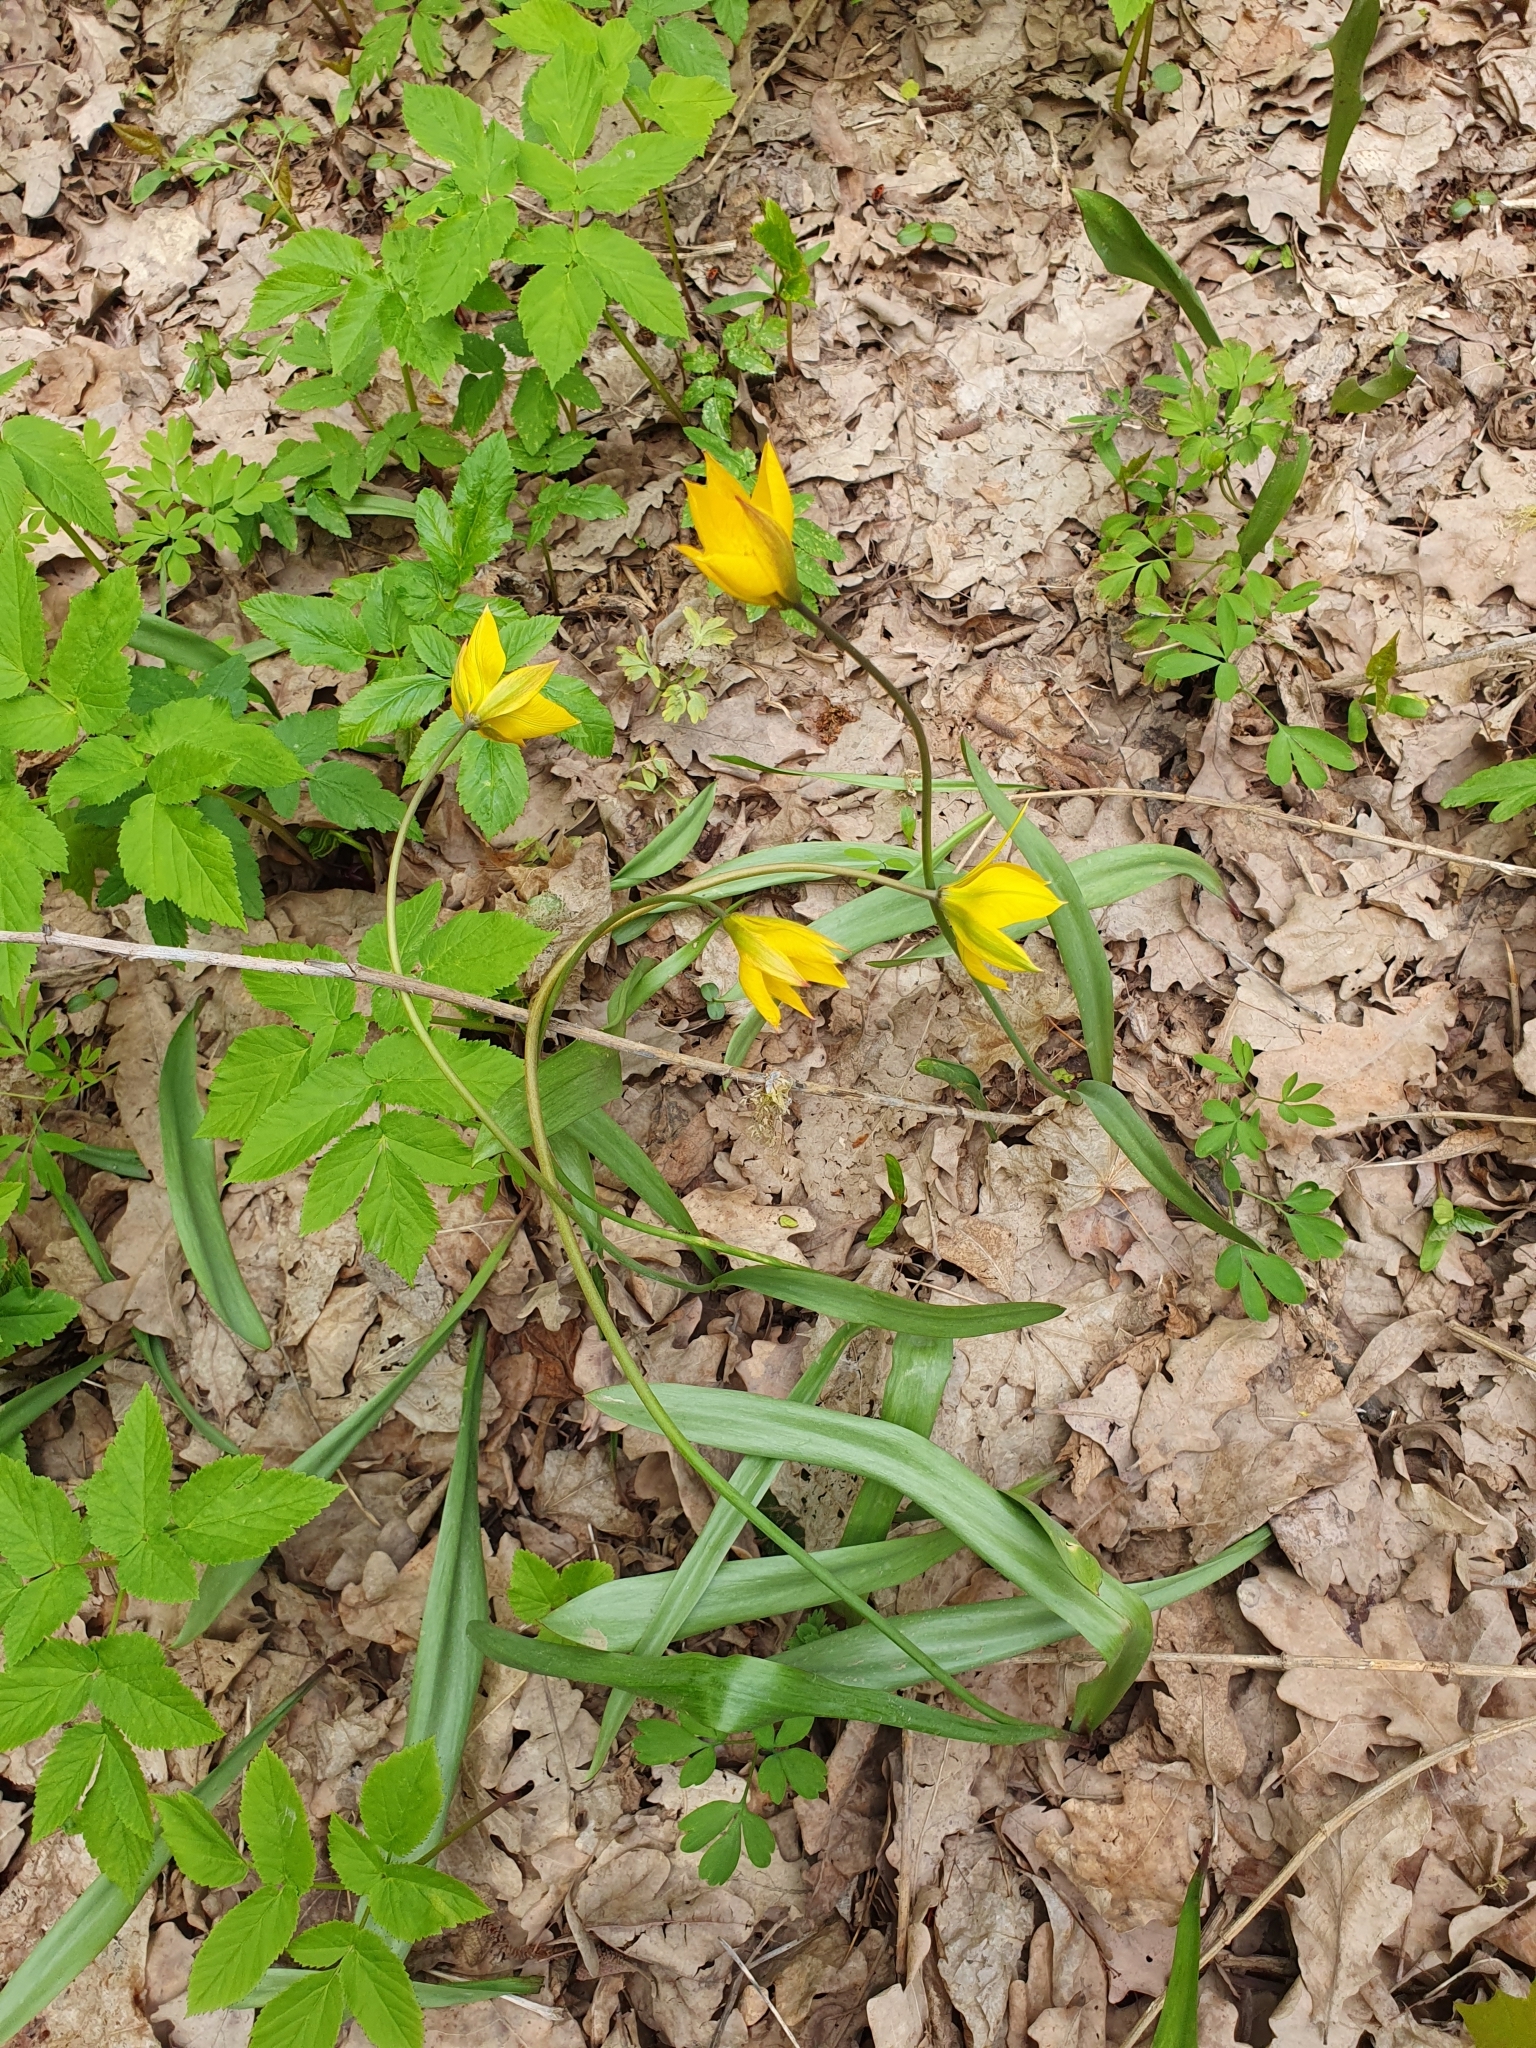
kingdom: Plantae
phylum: Tracheophyta
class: Liliopsida
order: Liliales
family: Liliaceae
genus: Tulipa
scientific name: Tulipa sylvestris
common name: Wild tulip
